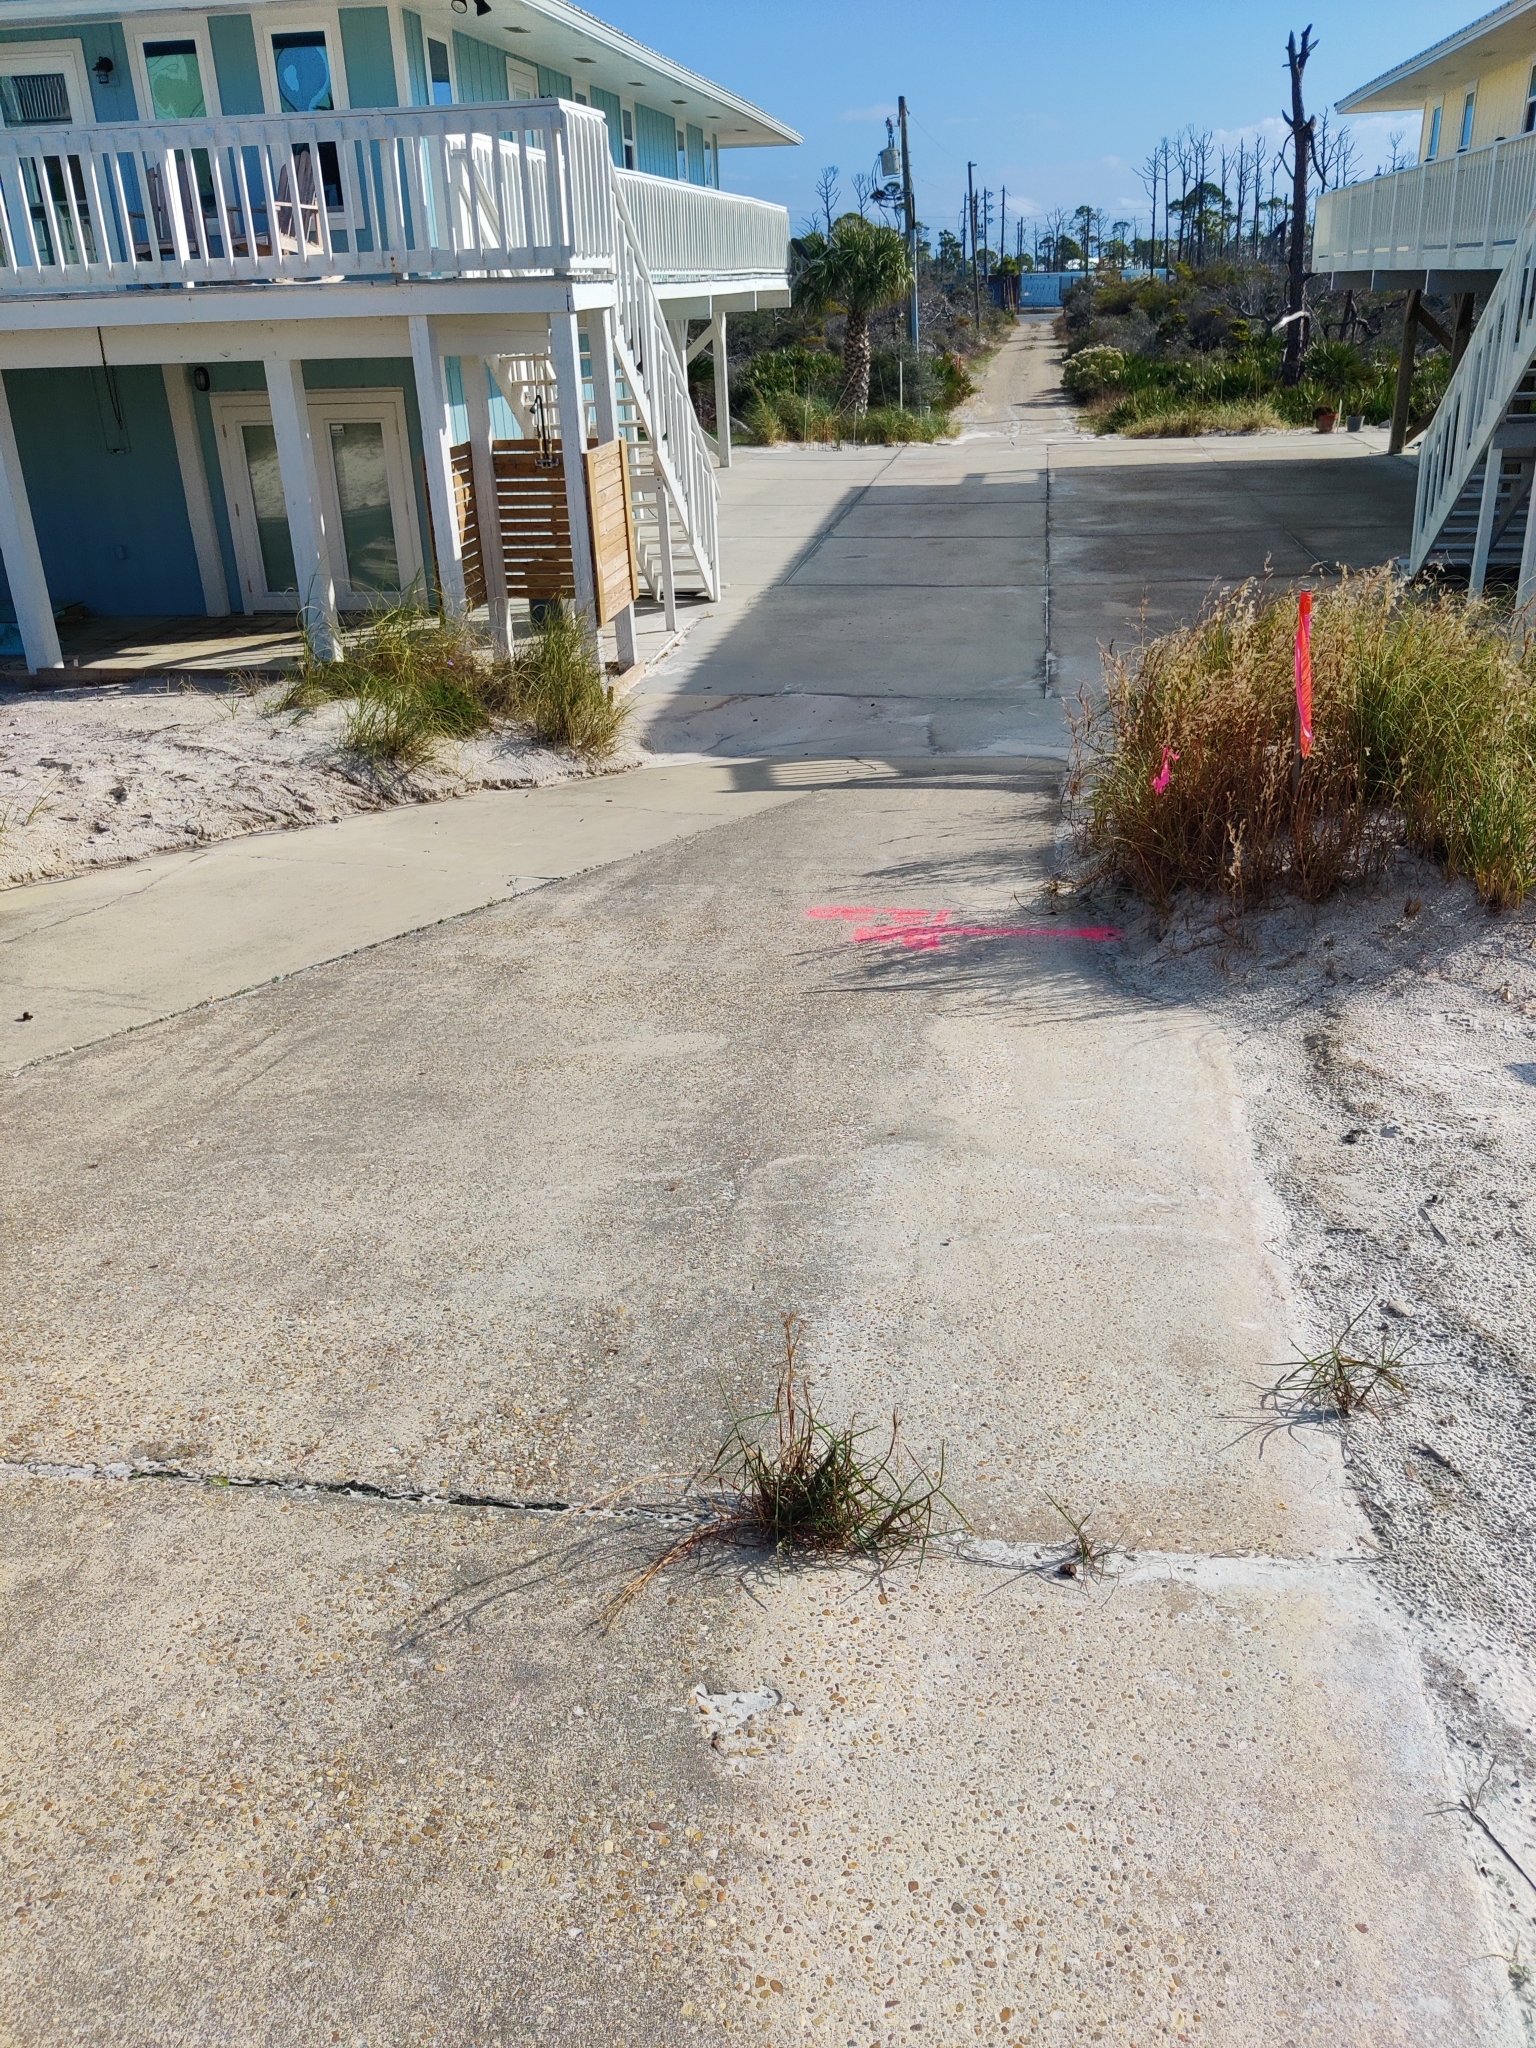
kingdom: Plantae
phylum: Tracheophyta
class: Liliopsida
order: Poales
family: Poaceae
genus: Schizachyrium
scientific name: Schizachyrium maritimum
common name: Gulf bluestem
